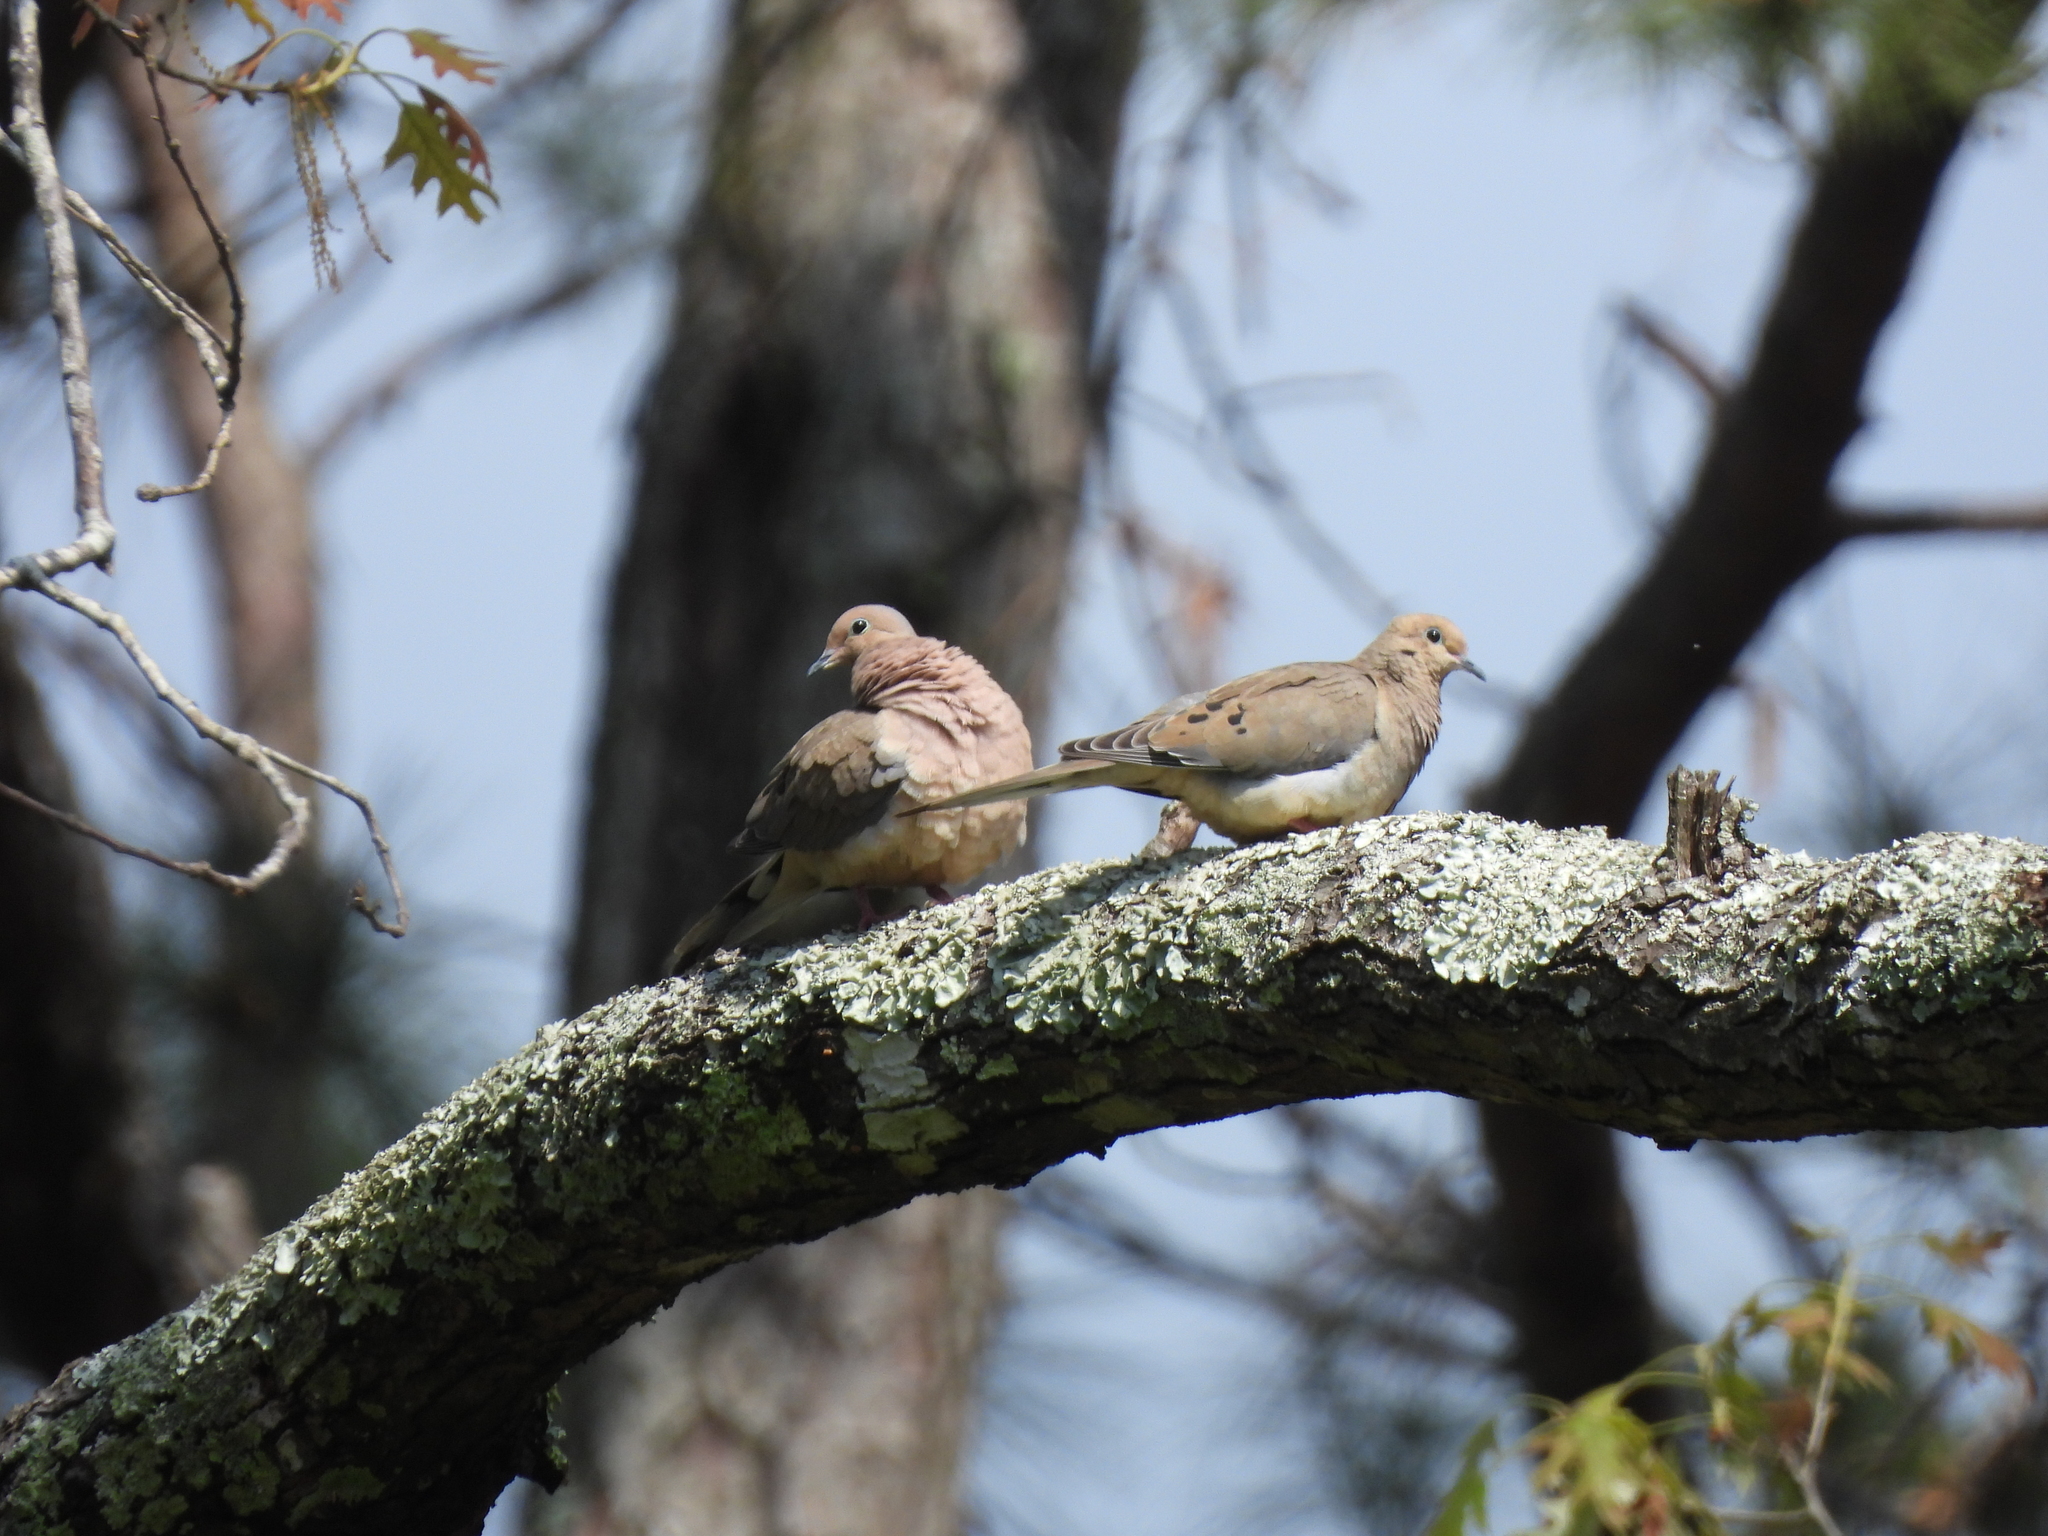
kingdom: Animalia
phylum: Chordata
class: Aves
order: Columbiformes
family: Columbidae
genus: Zenaida
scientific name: Zenaida macroura
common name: Mourning dove
